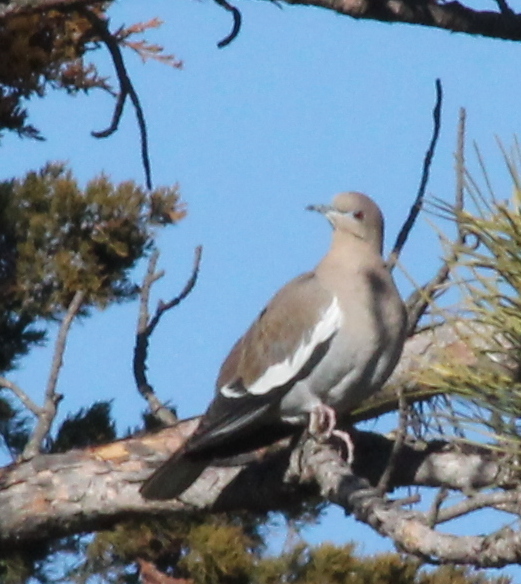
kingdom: Animalia
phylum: Chordata
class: Aves
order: Columbiformes
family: Columbidae
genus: Zenaida
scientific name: Zenaida asiatica
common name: White-winged dove
